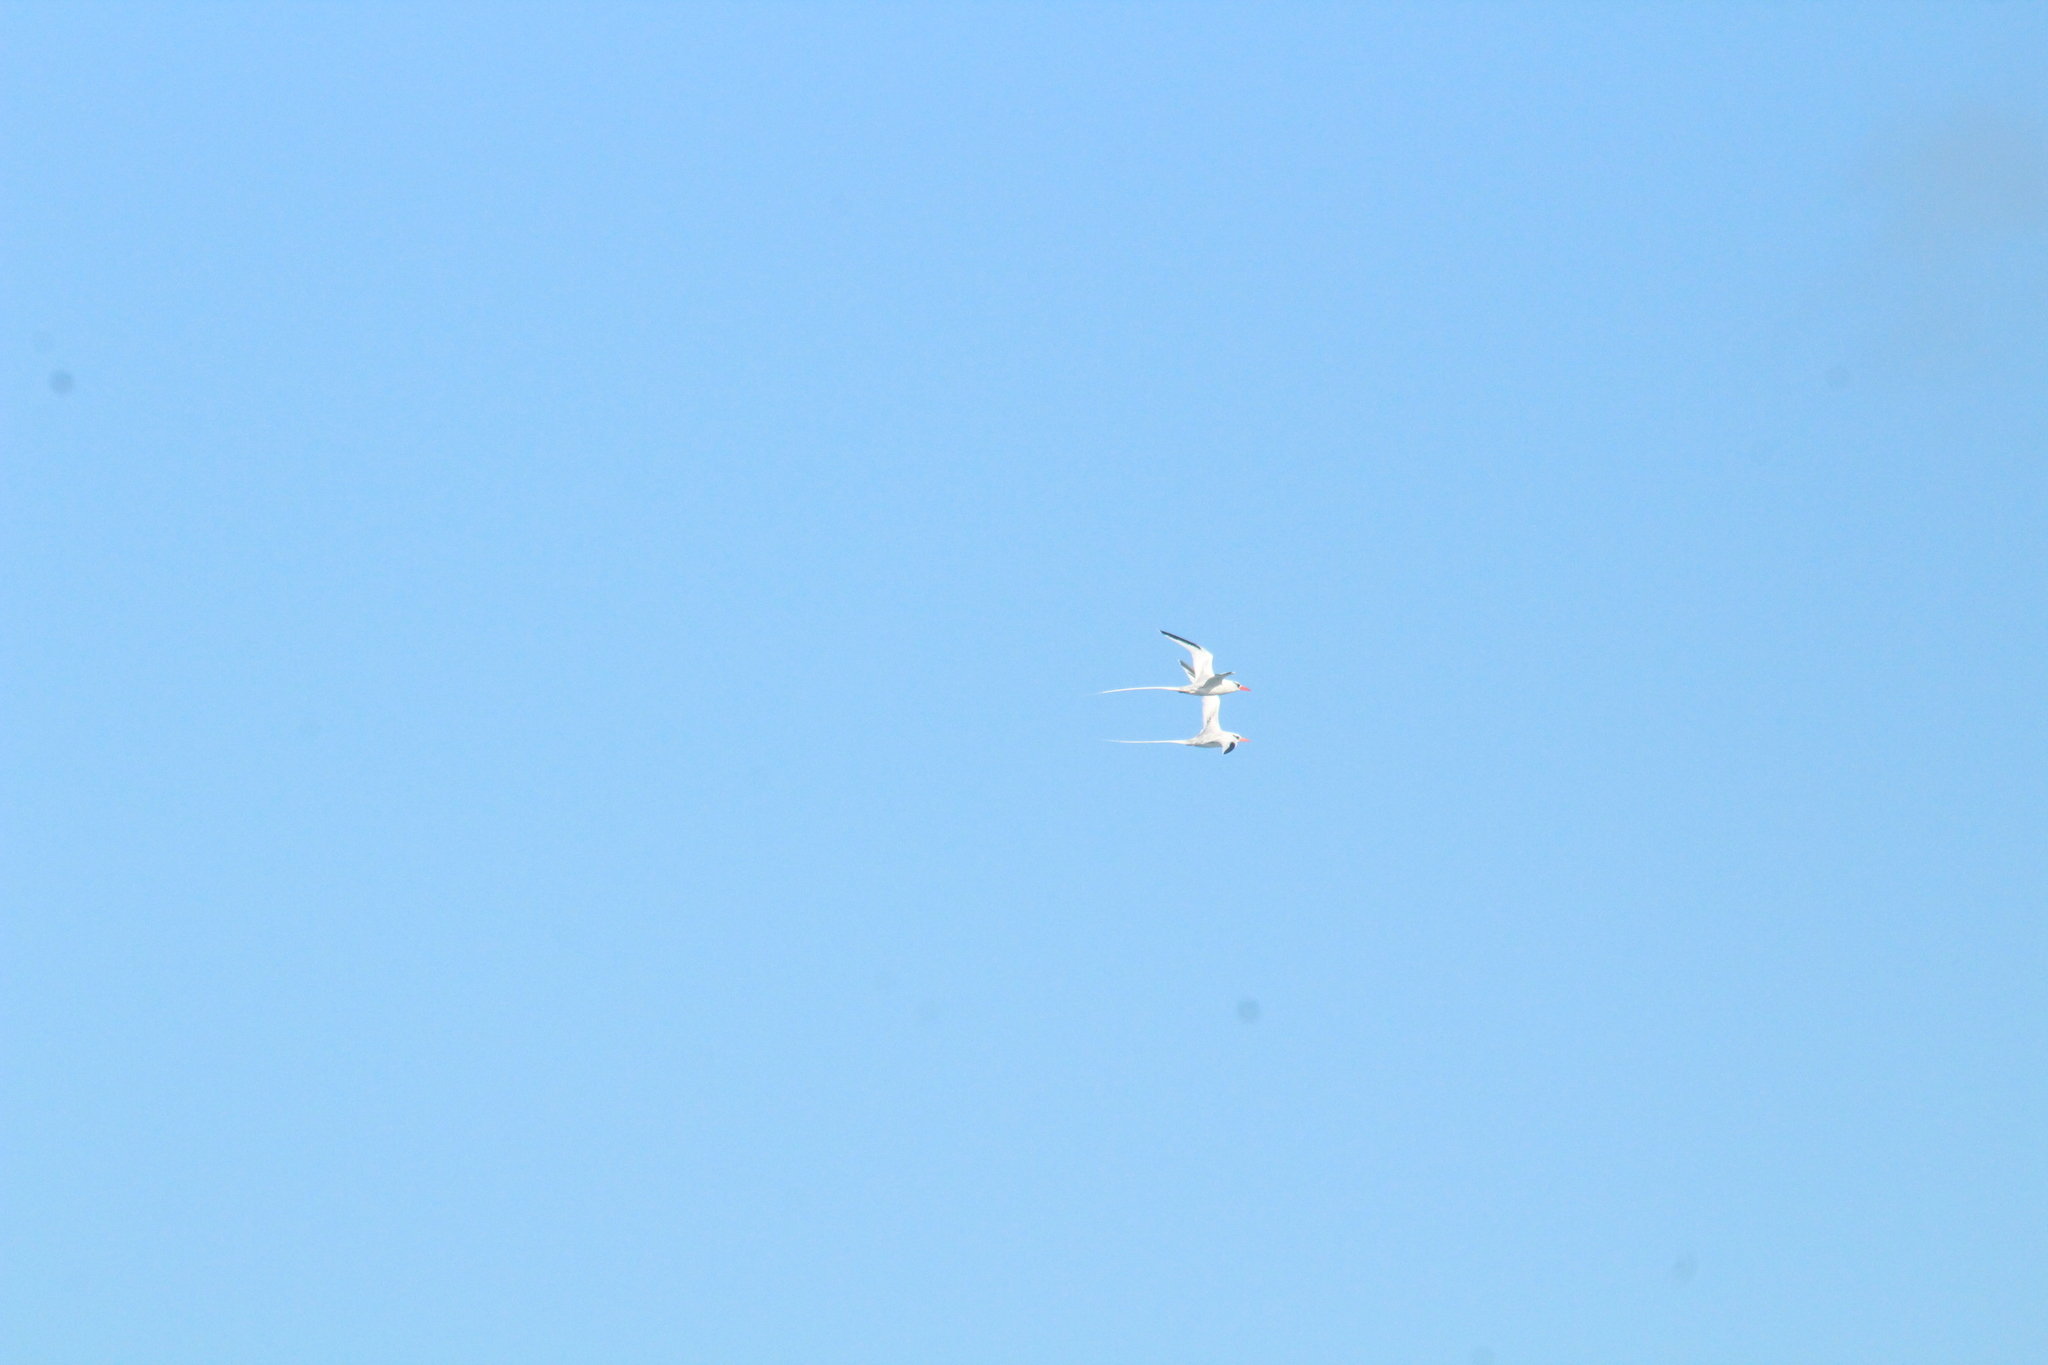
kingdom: Animalia
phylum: Chordata
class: Aves
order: Phaethontiformes
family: Phaethontidae
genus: Phaethon
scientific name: Phaethon aethereus
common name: Red-billed tropicbird
